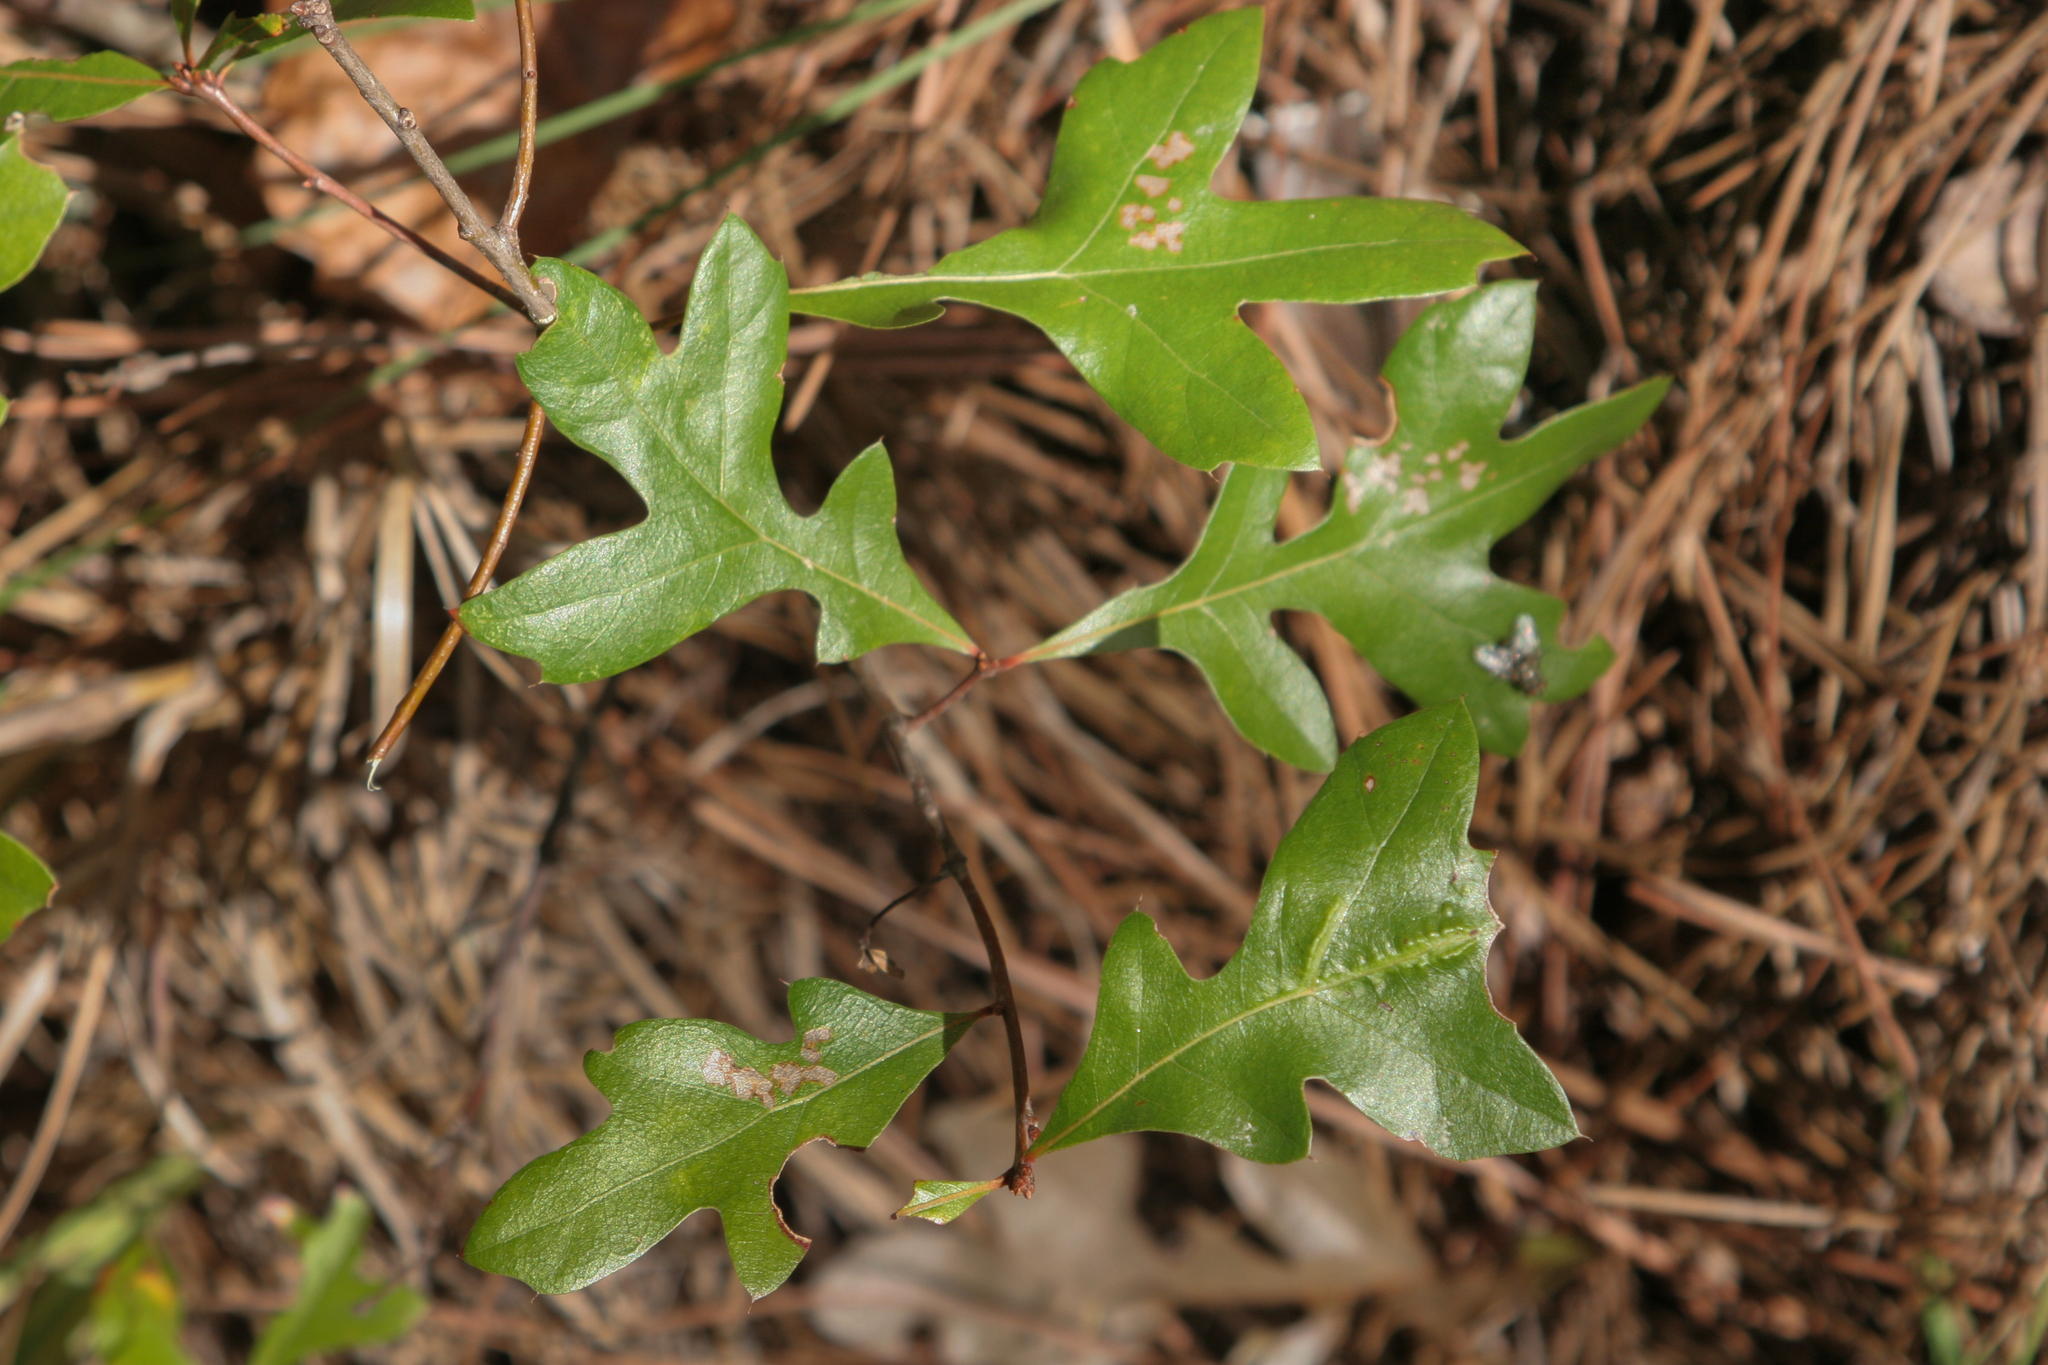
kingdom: Plantae
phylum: Tracheophyta
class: Magnoliopsida
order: Fagales
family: Fagaceae
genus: Quercus
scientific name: Quercus georgiana
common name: Georgia oak
